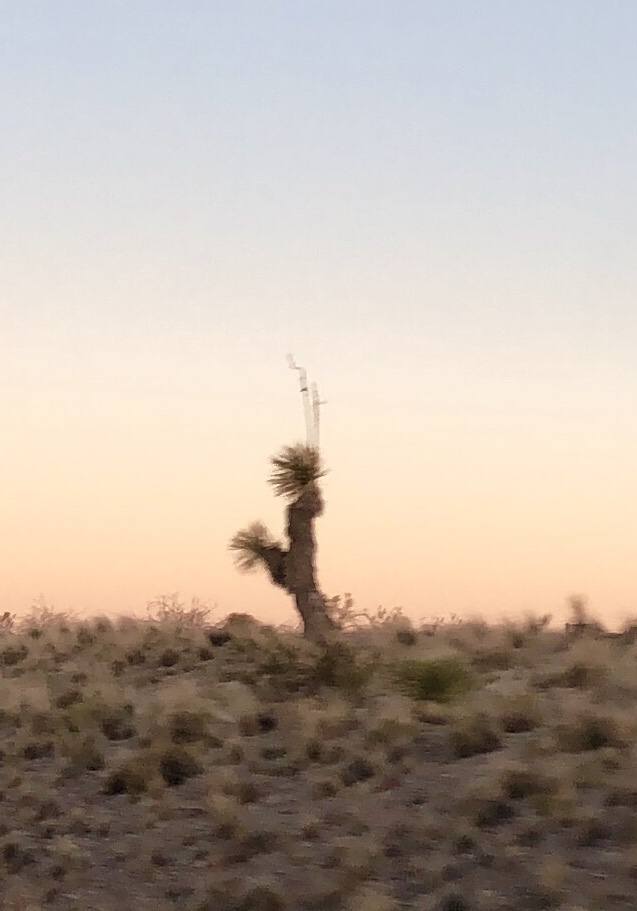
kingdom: Plantae
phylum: Tracheophyta
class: Liliopsida
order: Asparagales
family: Asparagaceae
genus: Yucca
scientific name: Yucca elata
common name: Palmella
